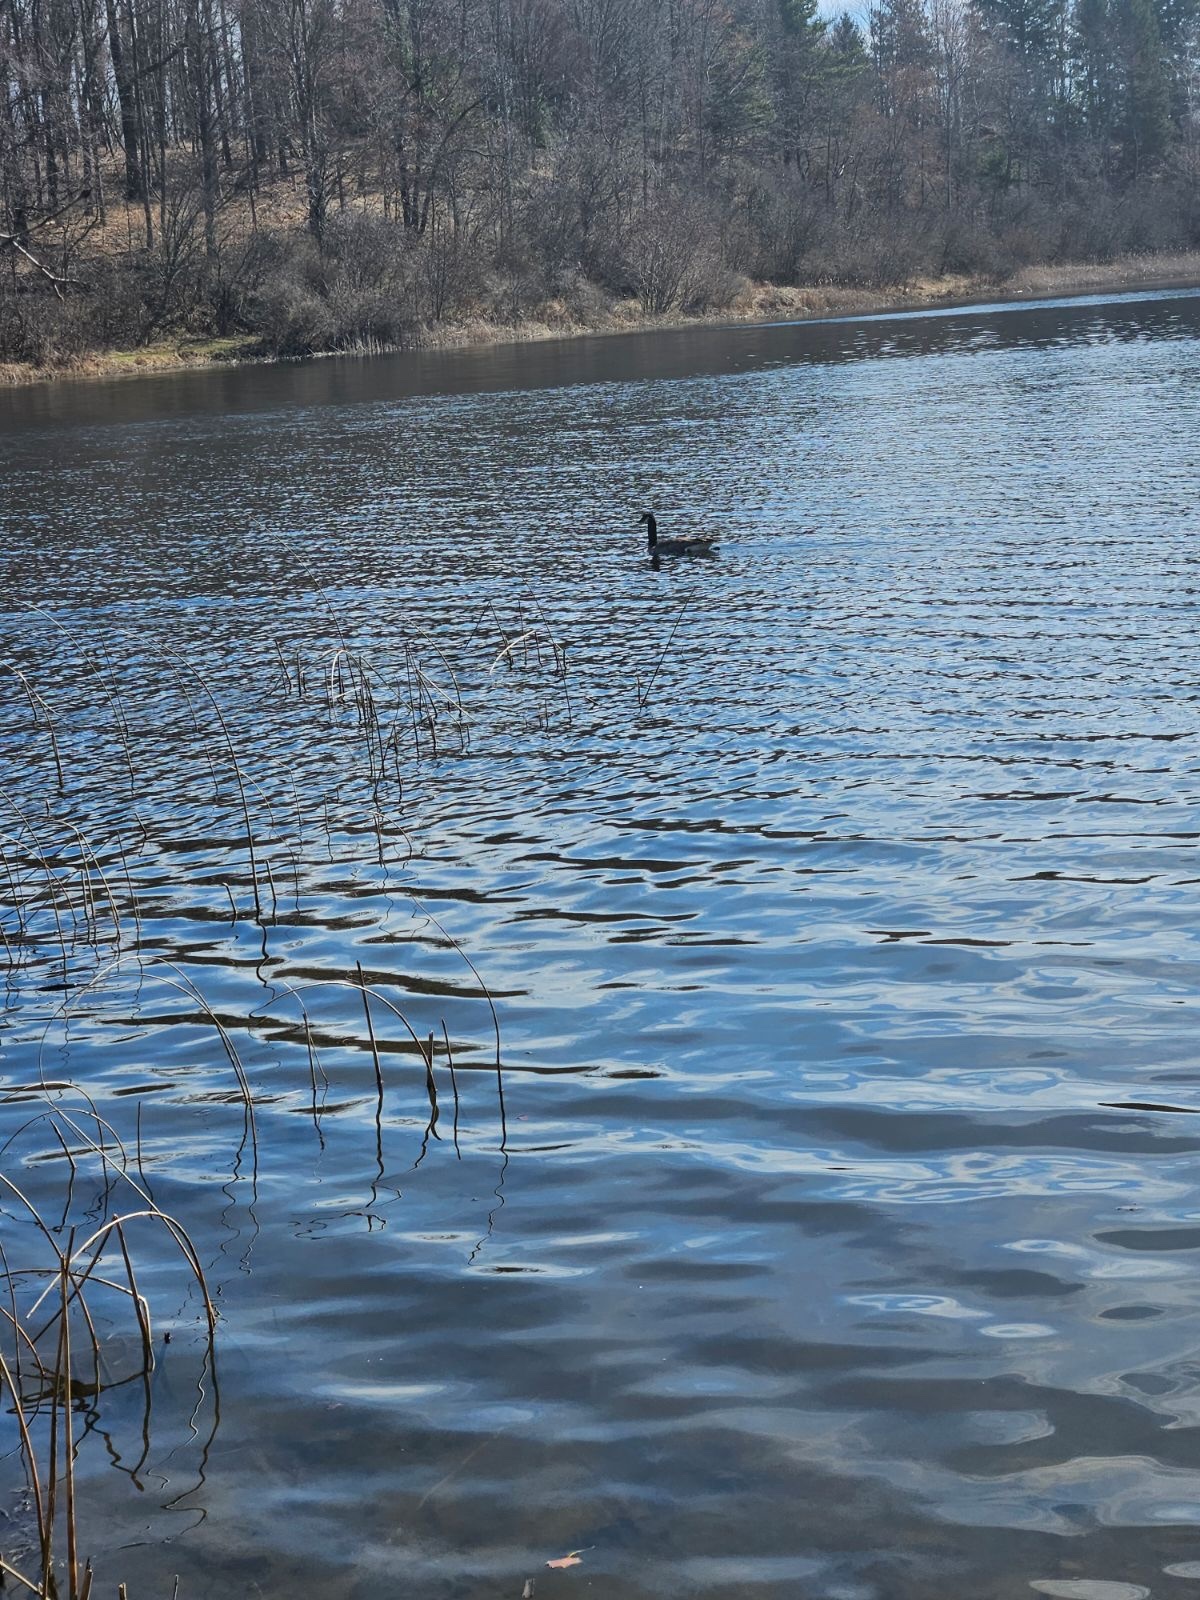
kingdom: Animalia
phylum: Chordata
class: Aves
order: Anseriformes
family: Anatidae
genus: Branta
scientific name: Branta canadensis
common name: Canada goose
